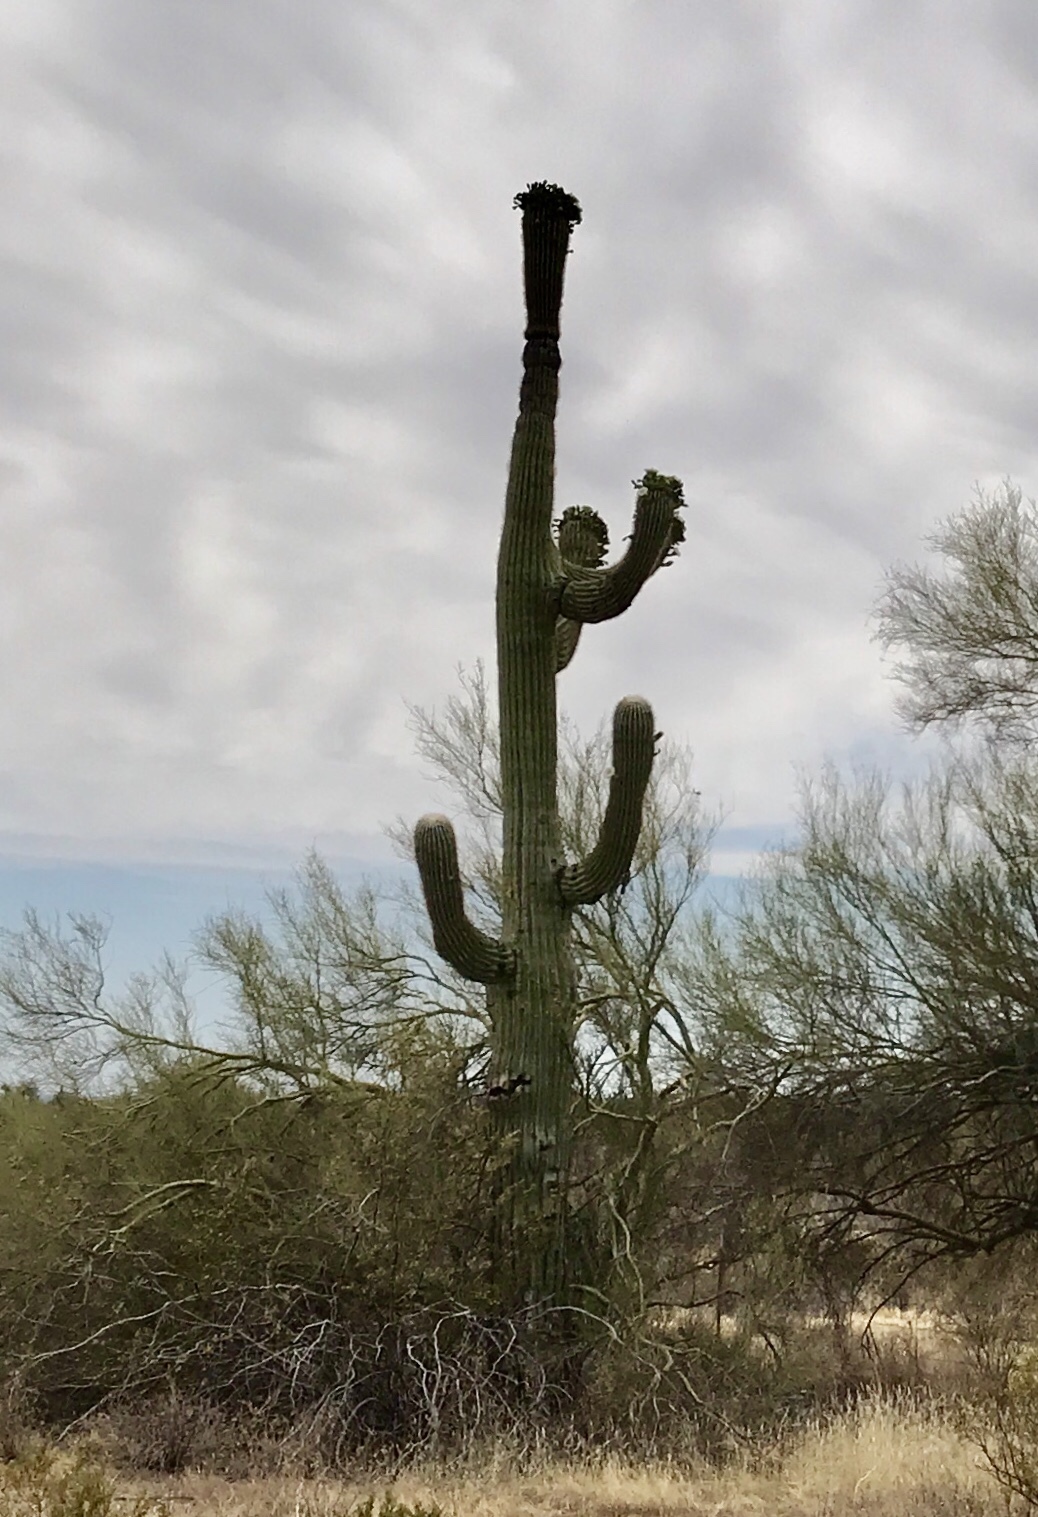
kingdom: Plantae
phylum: Tracheophyta
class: Magnoliopsida
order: Caryophyllales
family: Cactaceae
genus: Carnegiea
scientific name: Carnegiea gigantea
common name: Saguaro
